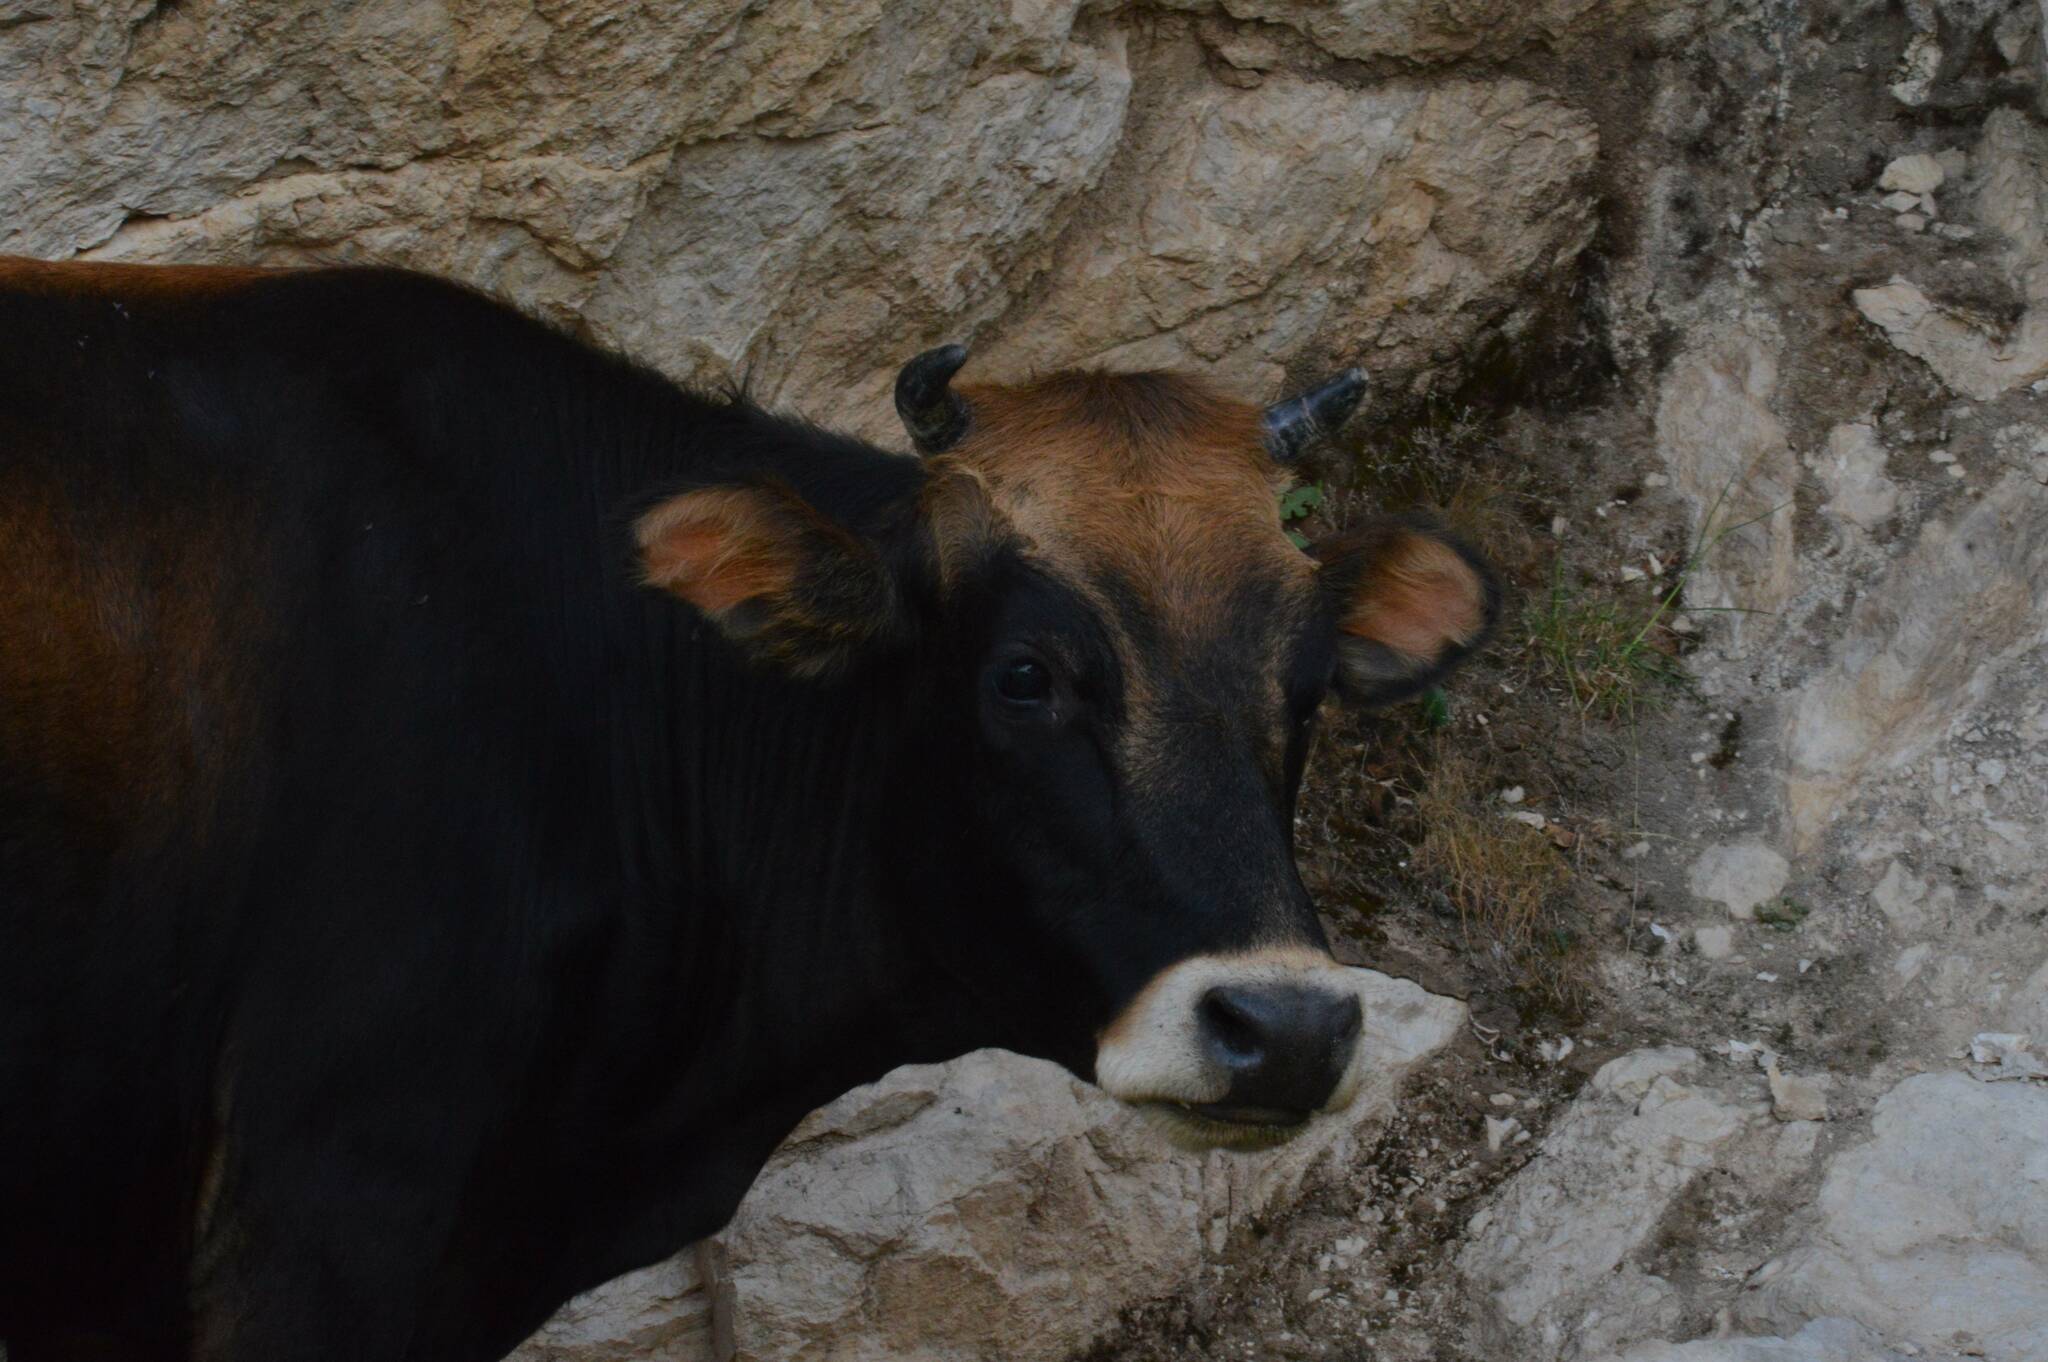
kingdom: Animalia
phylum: Chordata
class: Mammalia
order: Artiodactyla
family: Bovidae
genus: Bos
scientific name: Bos taurus
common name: Domesticated cattle
